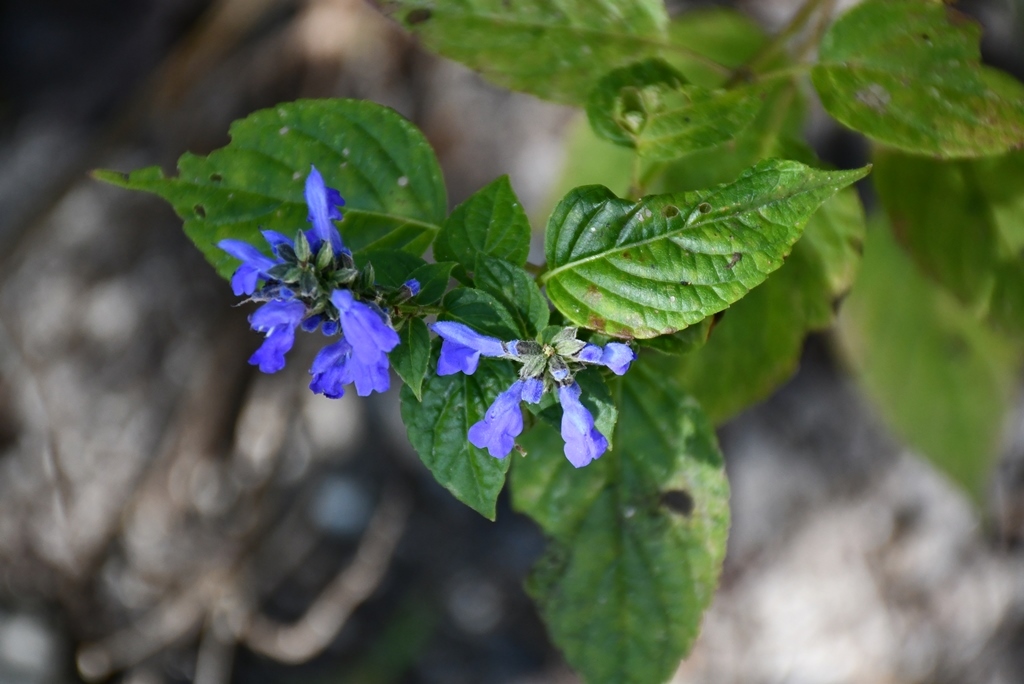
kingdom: Plantae
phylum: Tracheophyta
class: Magnoliopsida
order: Lamiales
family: Lamiaceae
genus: Salvia
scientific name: Salvia connivens
